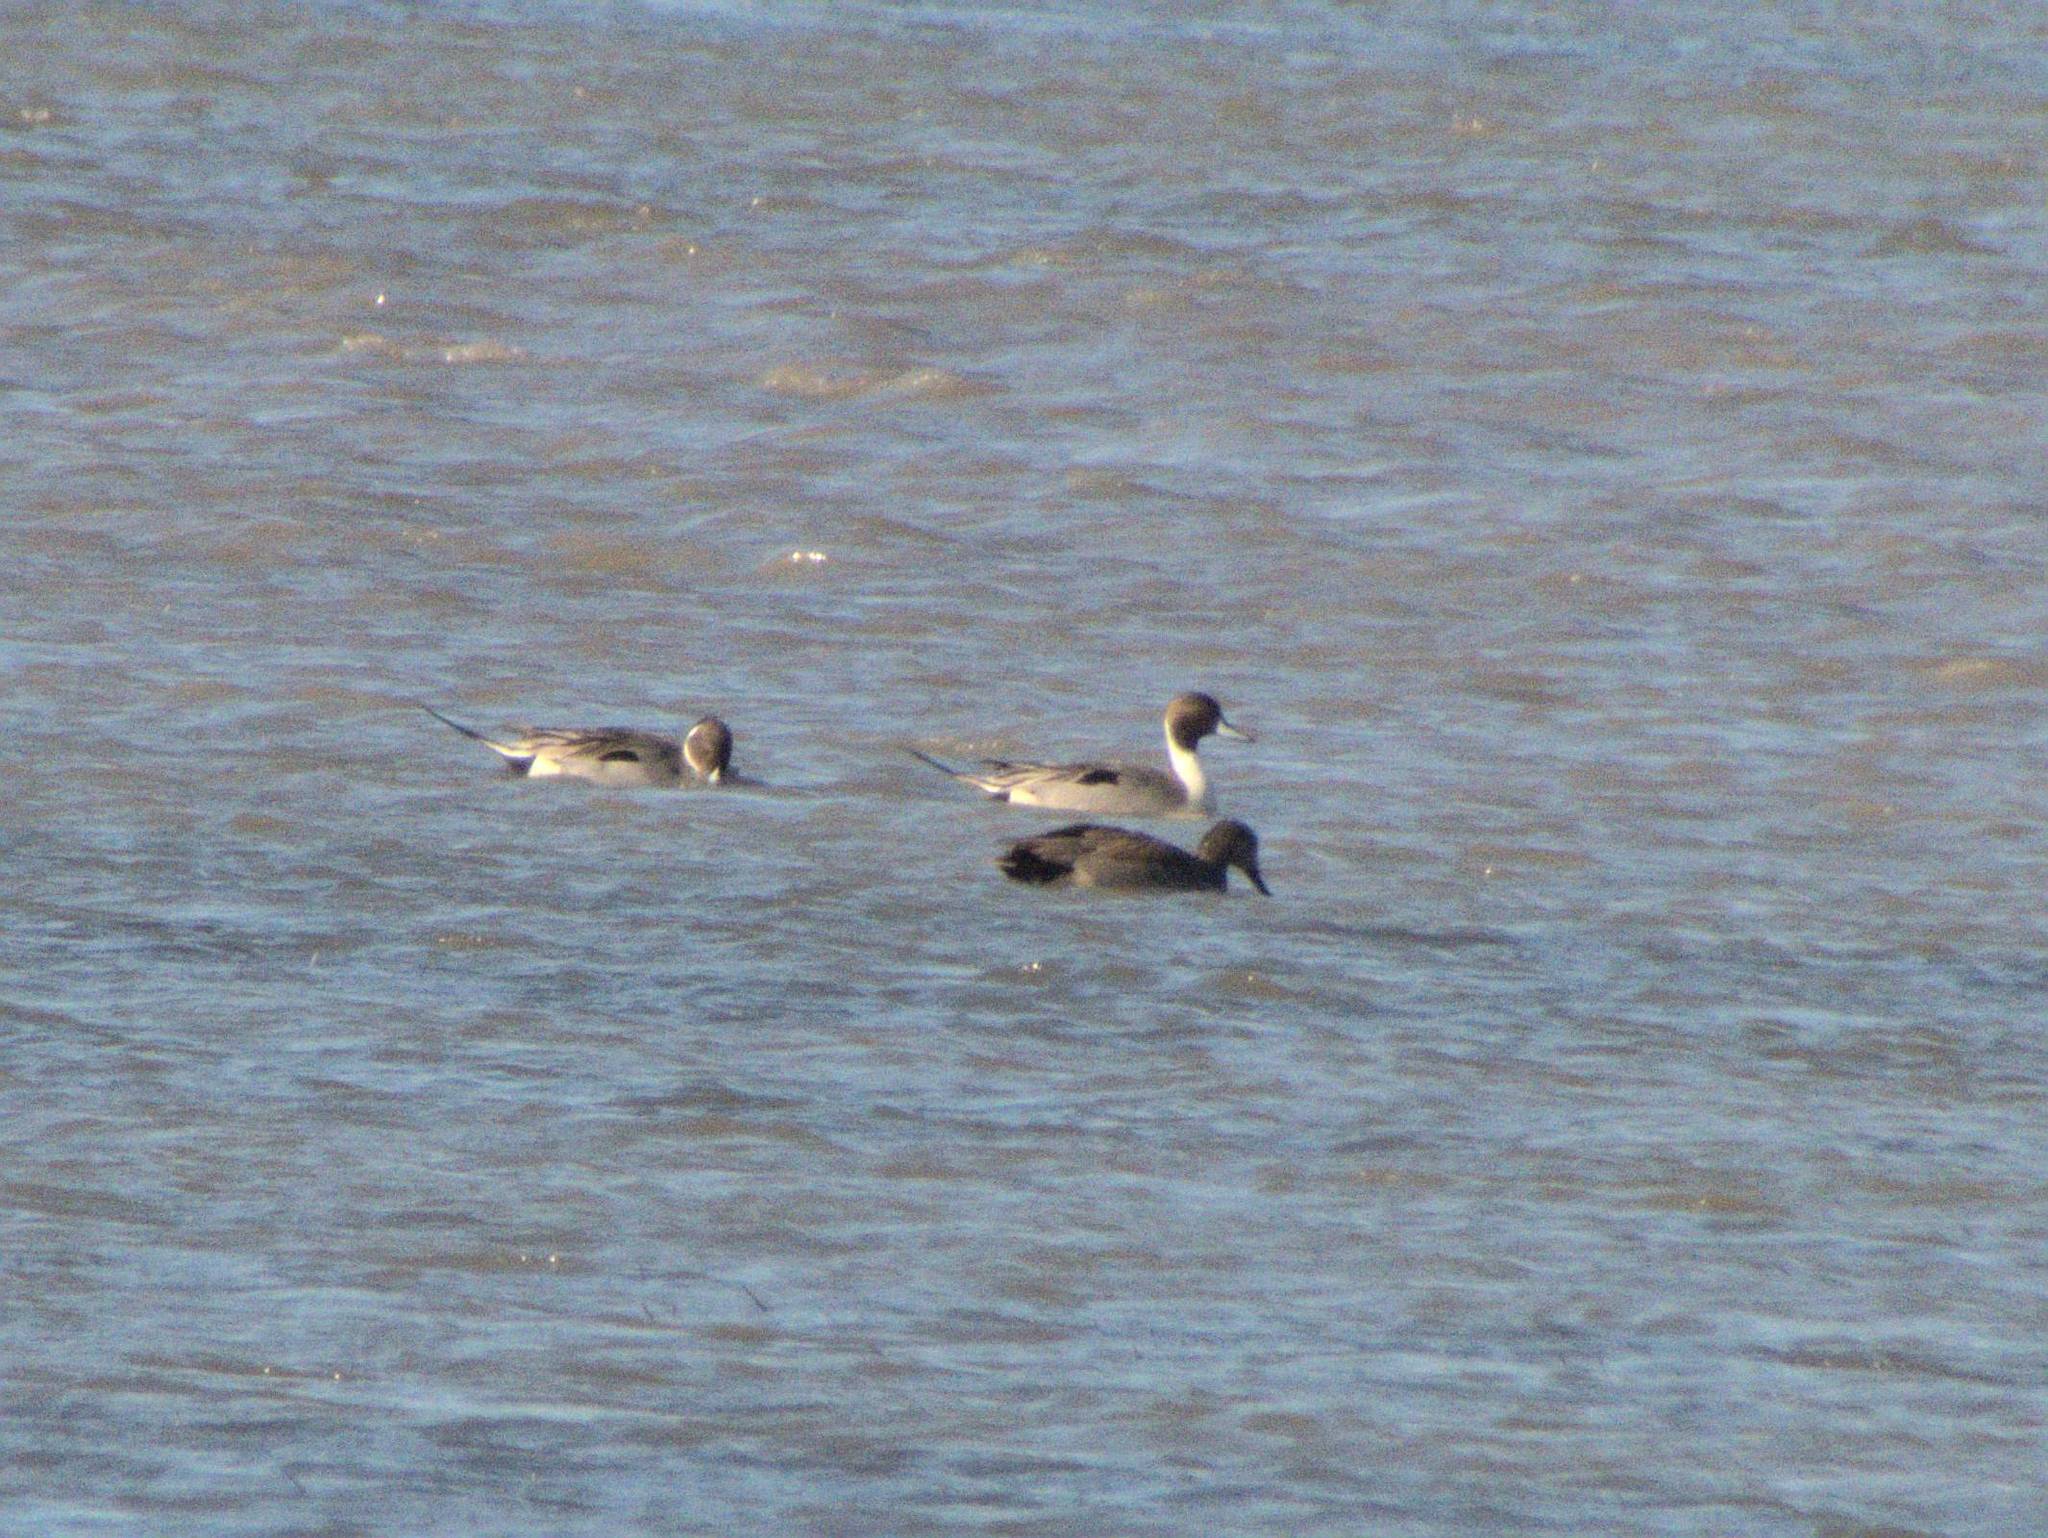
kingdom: Animalia
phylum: Chordata
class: Aves
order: Anseriformes
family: Anatidae
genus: Anas
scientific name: Anas acuta
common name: Northern pintail
